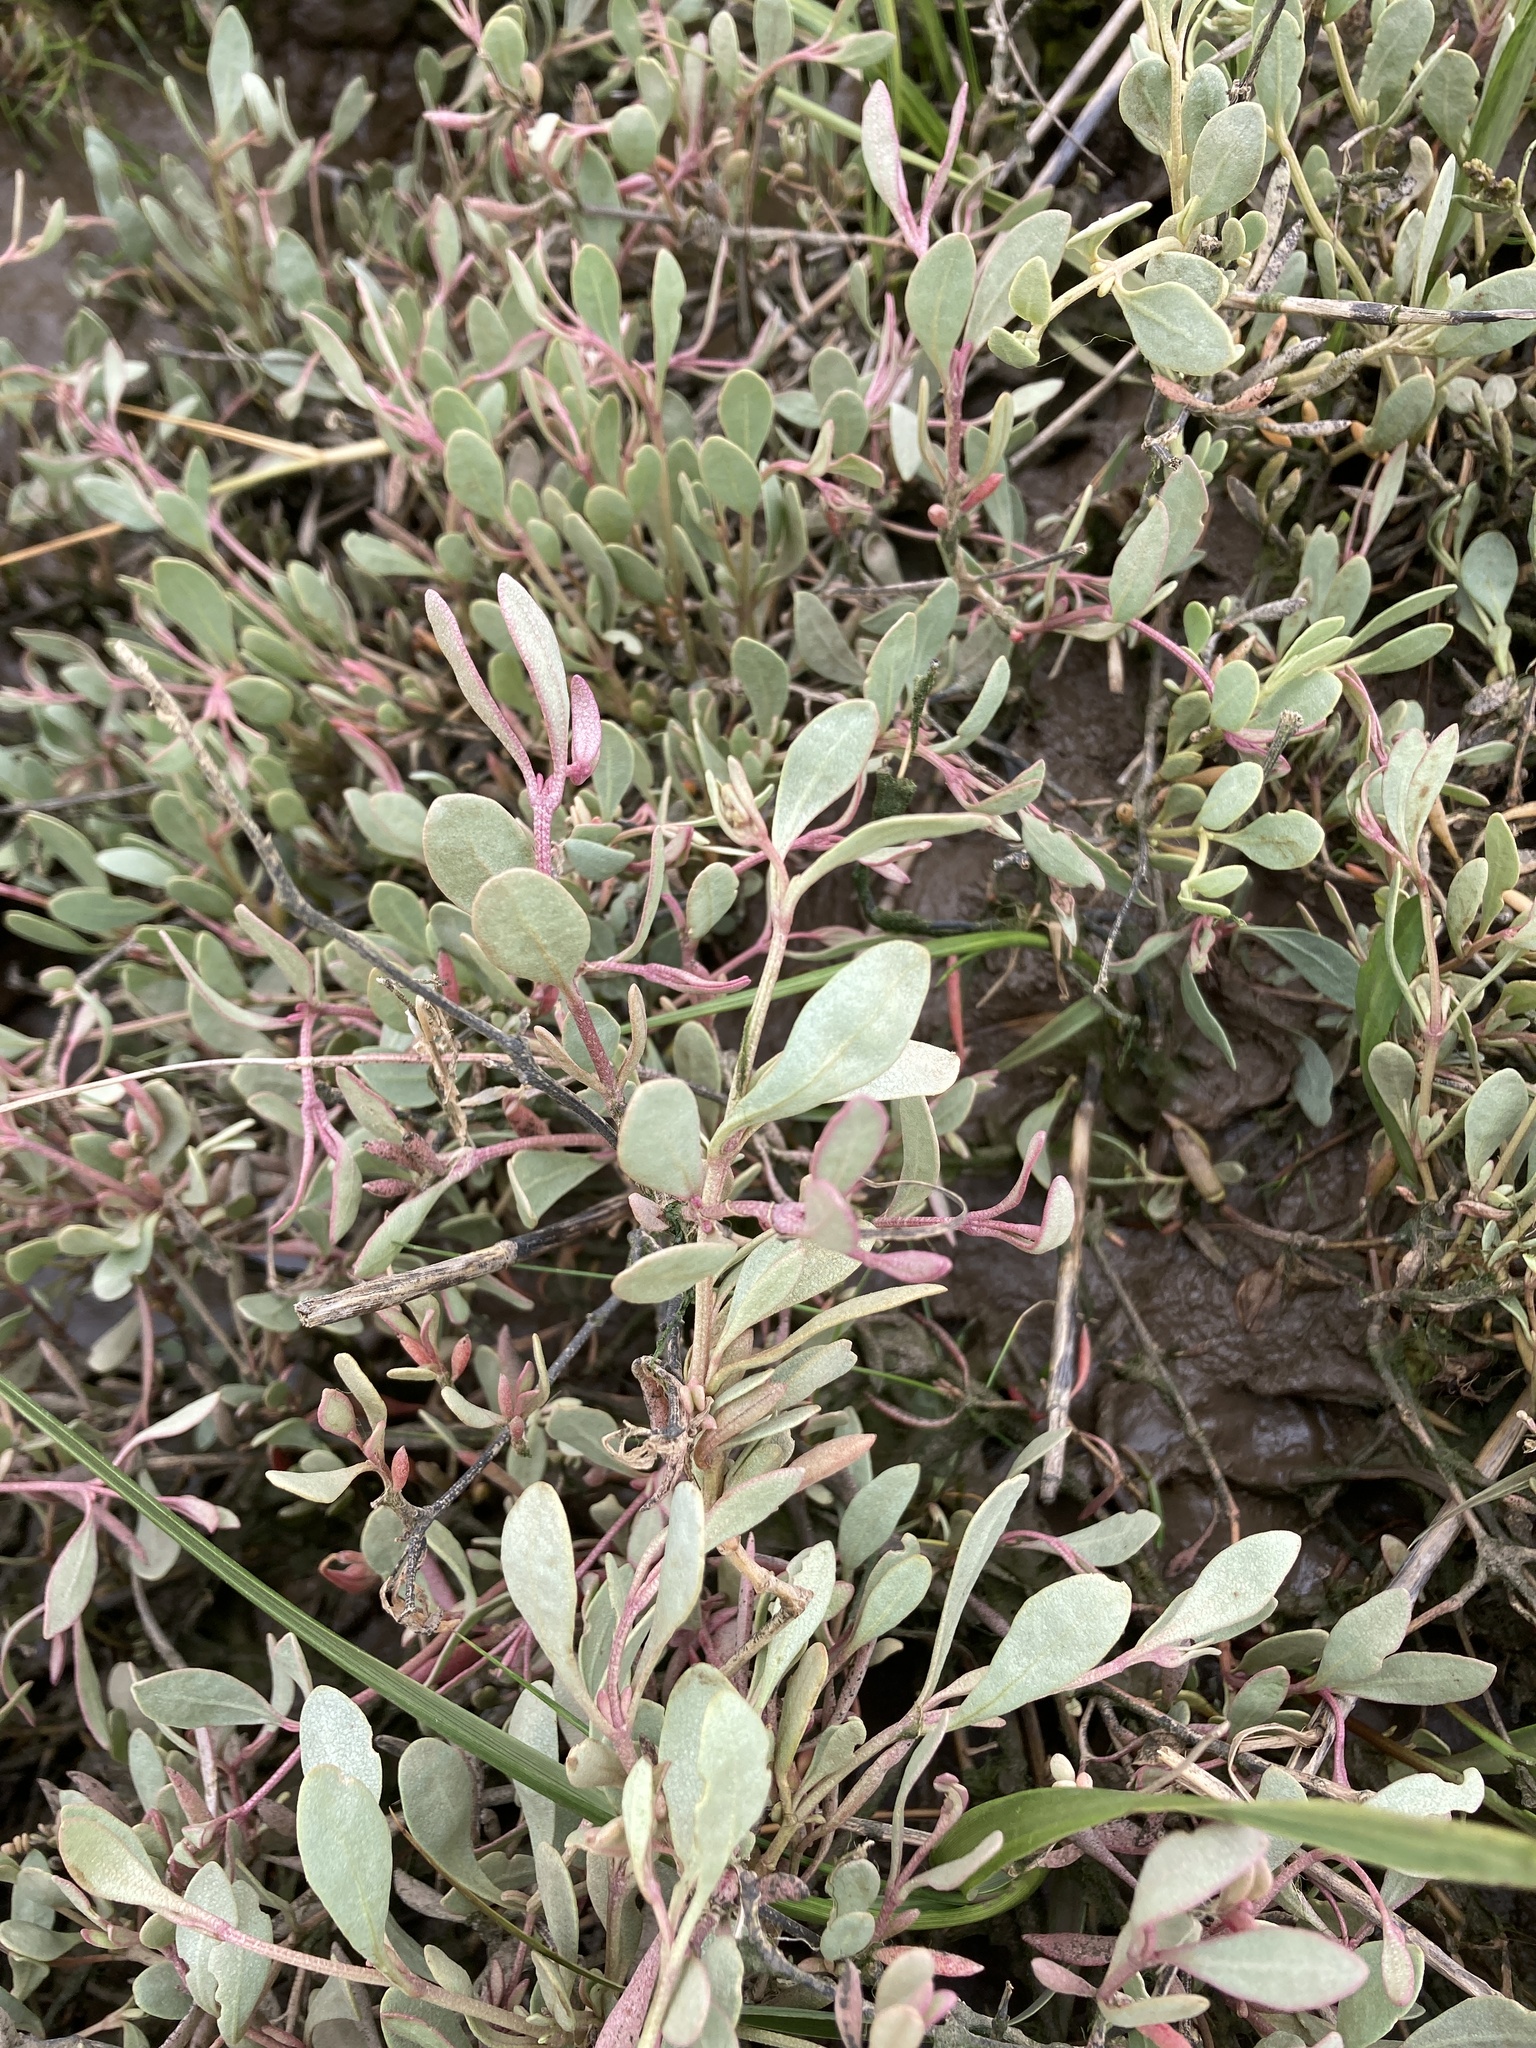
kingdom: Plantae
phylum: Tracheophyta
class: Magnoliopsida
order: Caryophyllales
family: Amaranthaceae
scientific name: Amaranthaceae
